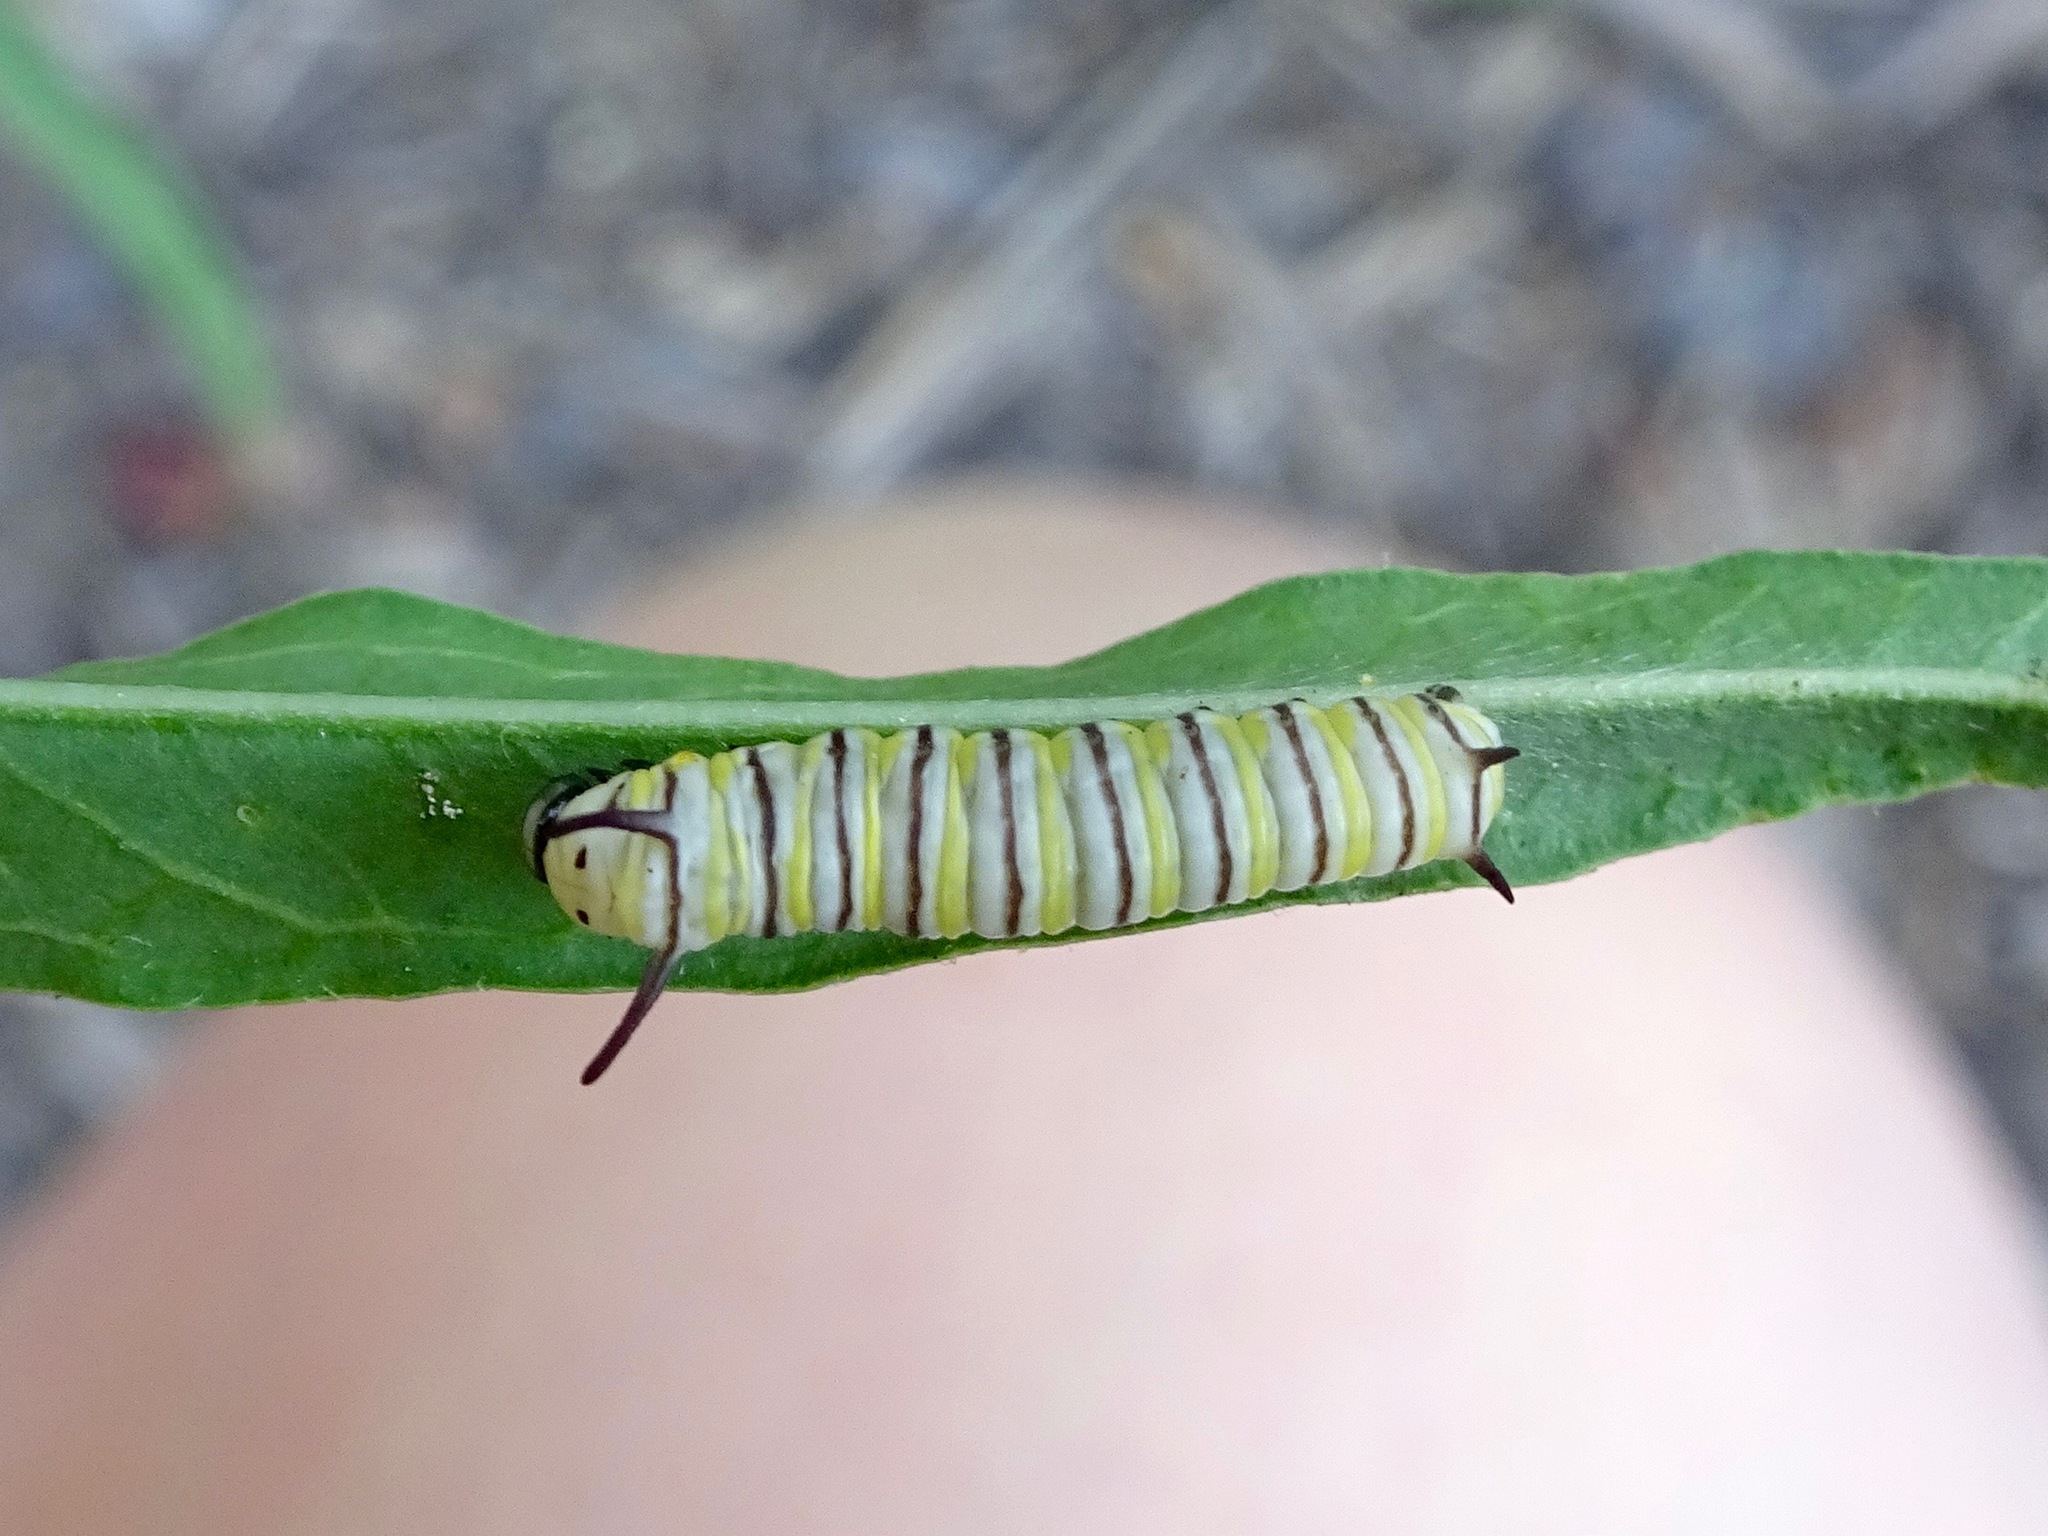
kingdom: Animalia
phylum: Arthropoda
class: Insecta
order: Lepidoptera
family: Nymphalidae
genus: Danaus
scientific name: Danaus plexippus
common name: Monarch
